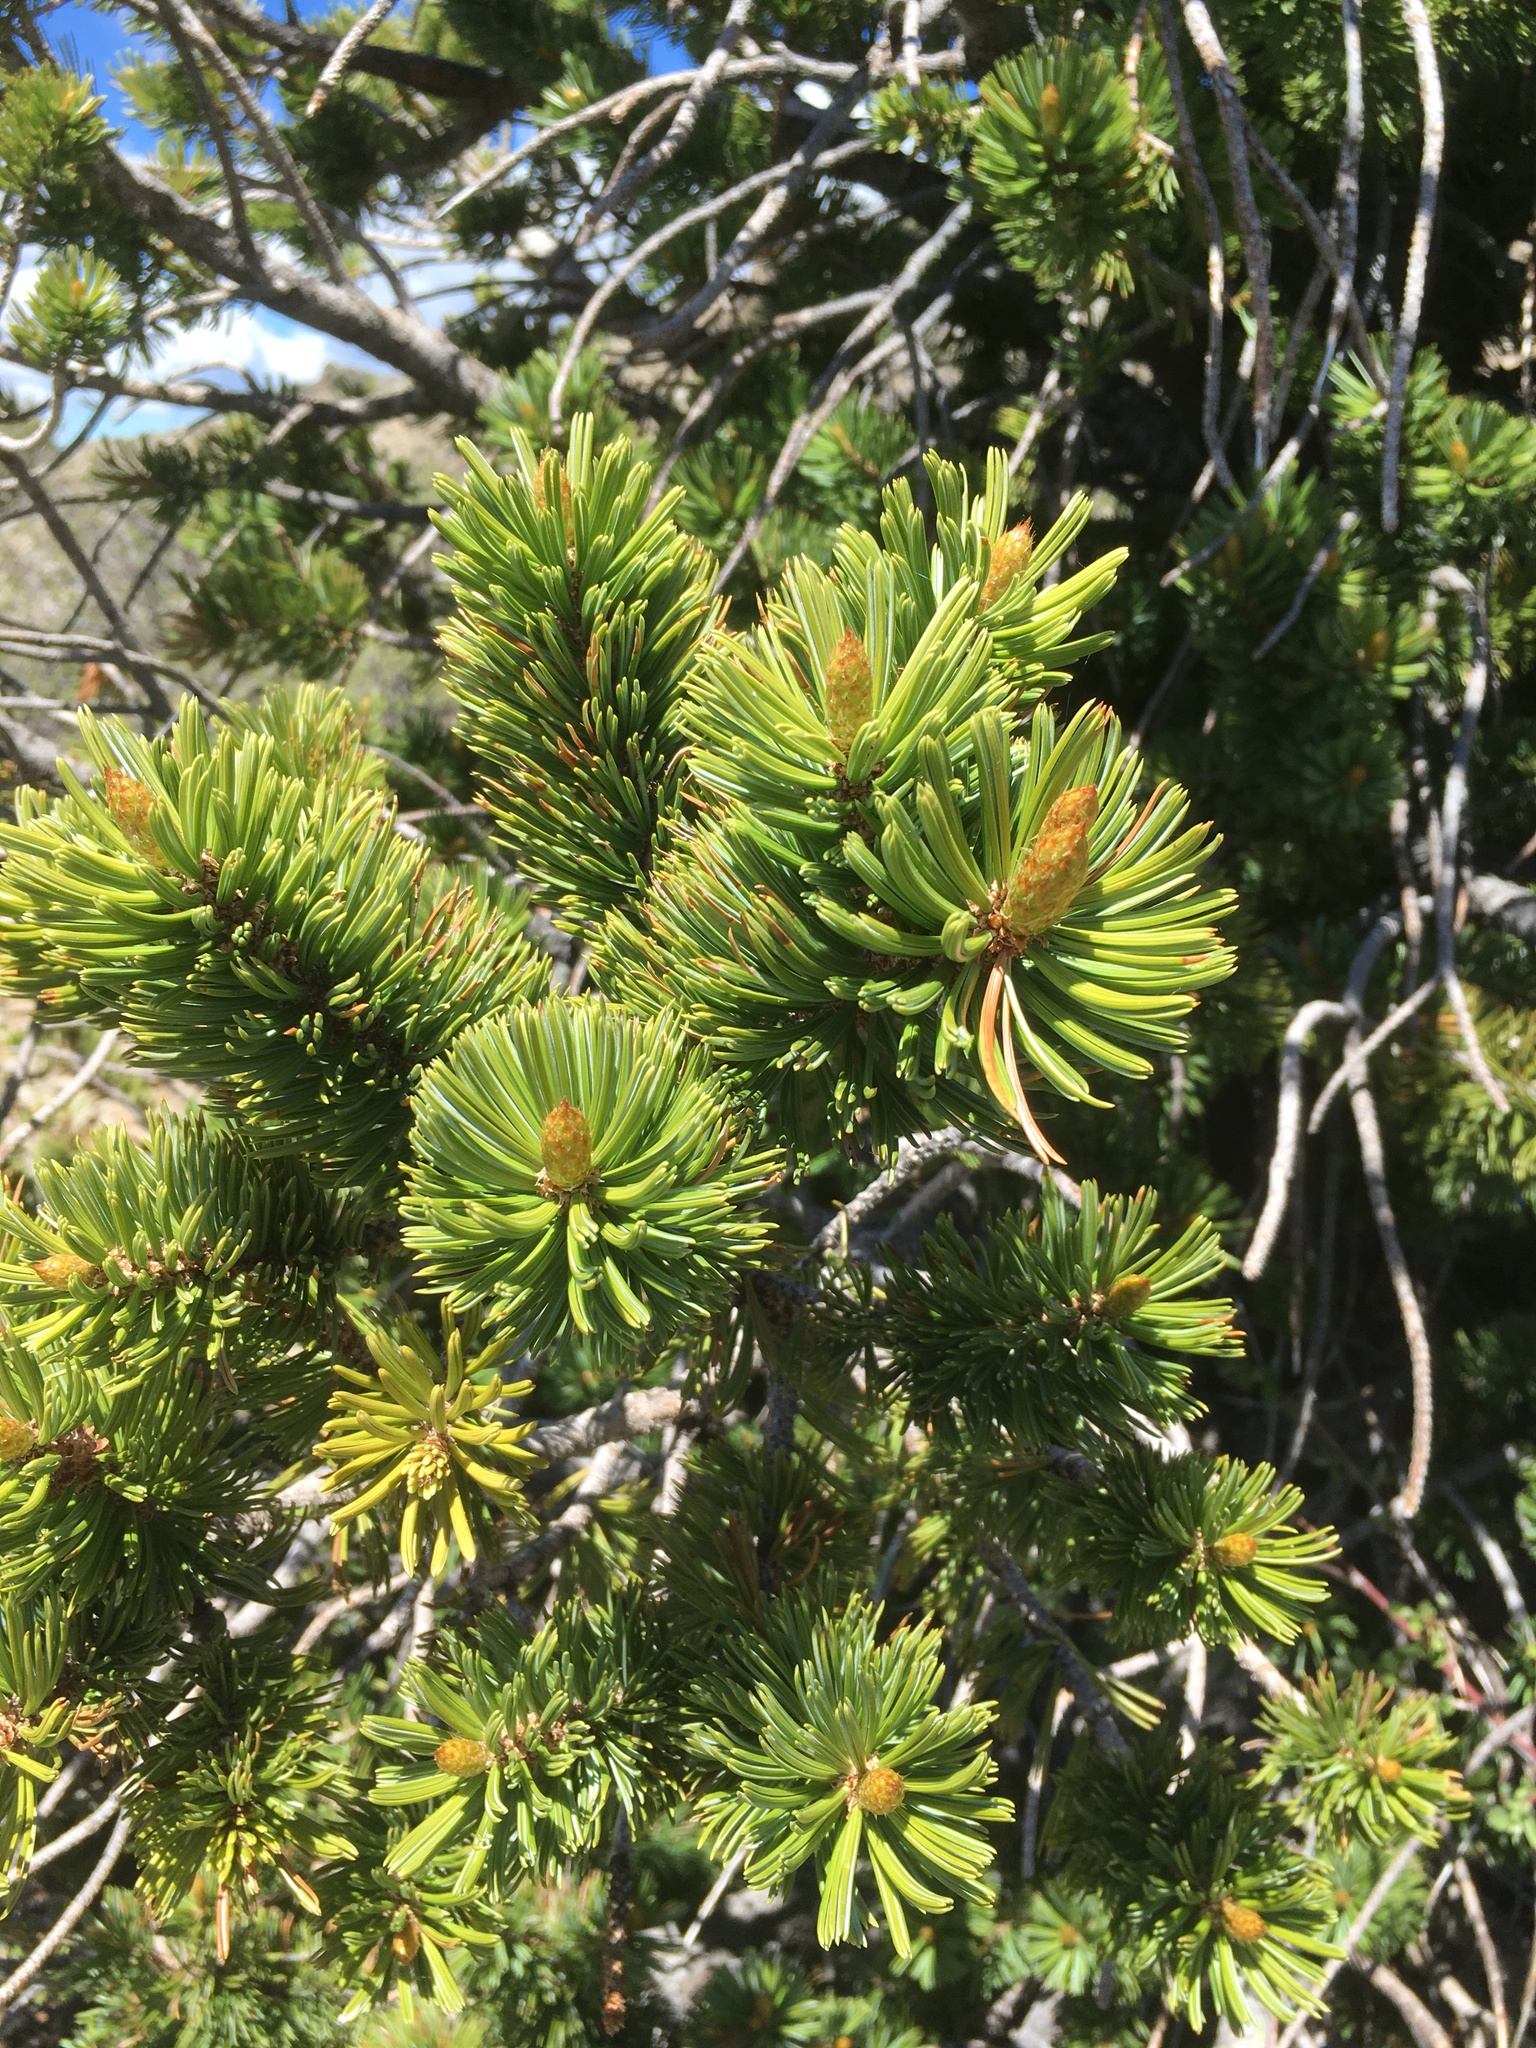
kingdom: Plantae
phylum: Tracheophyta
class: Pinopsida
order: Pinales
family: Pinaceae
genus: Pinus
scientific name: Pinus balfouriana
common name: Foxtail pine
